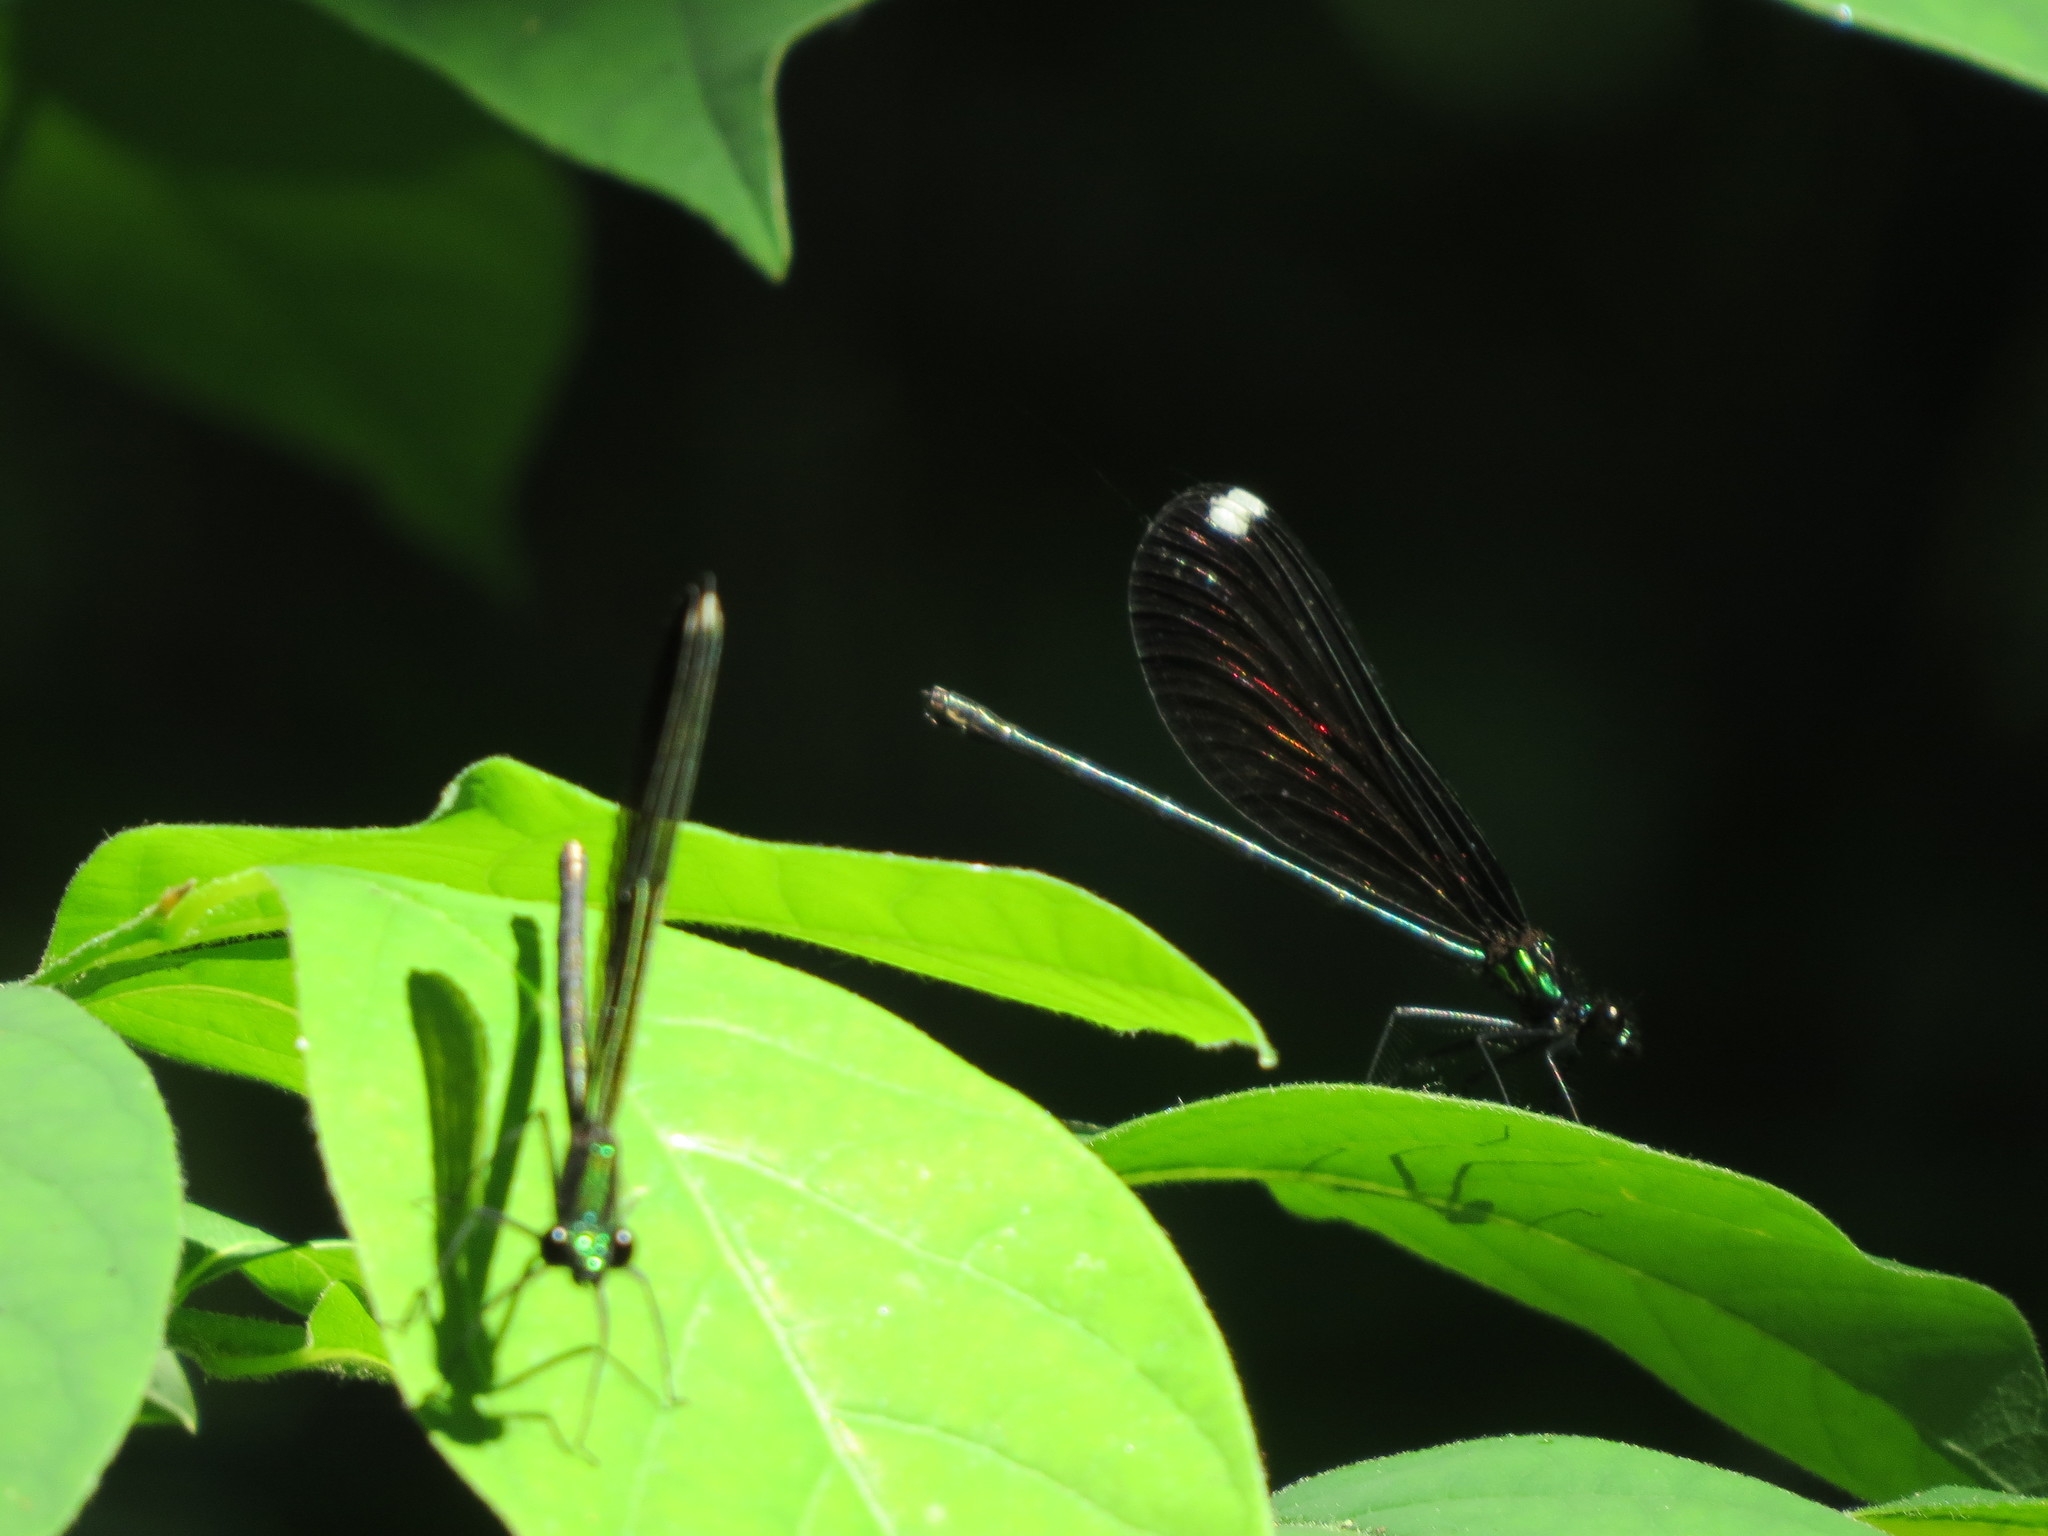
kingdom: Animalia
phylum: Arthropoda
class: Insecta
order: Odonata
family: Calopterygidae
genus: Calopteryx
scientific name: Calopteryx maculata
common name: Ebony jewelwing
